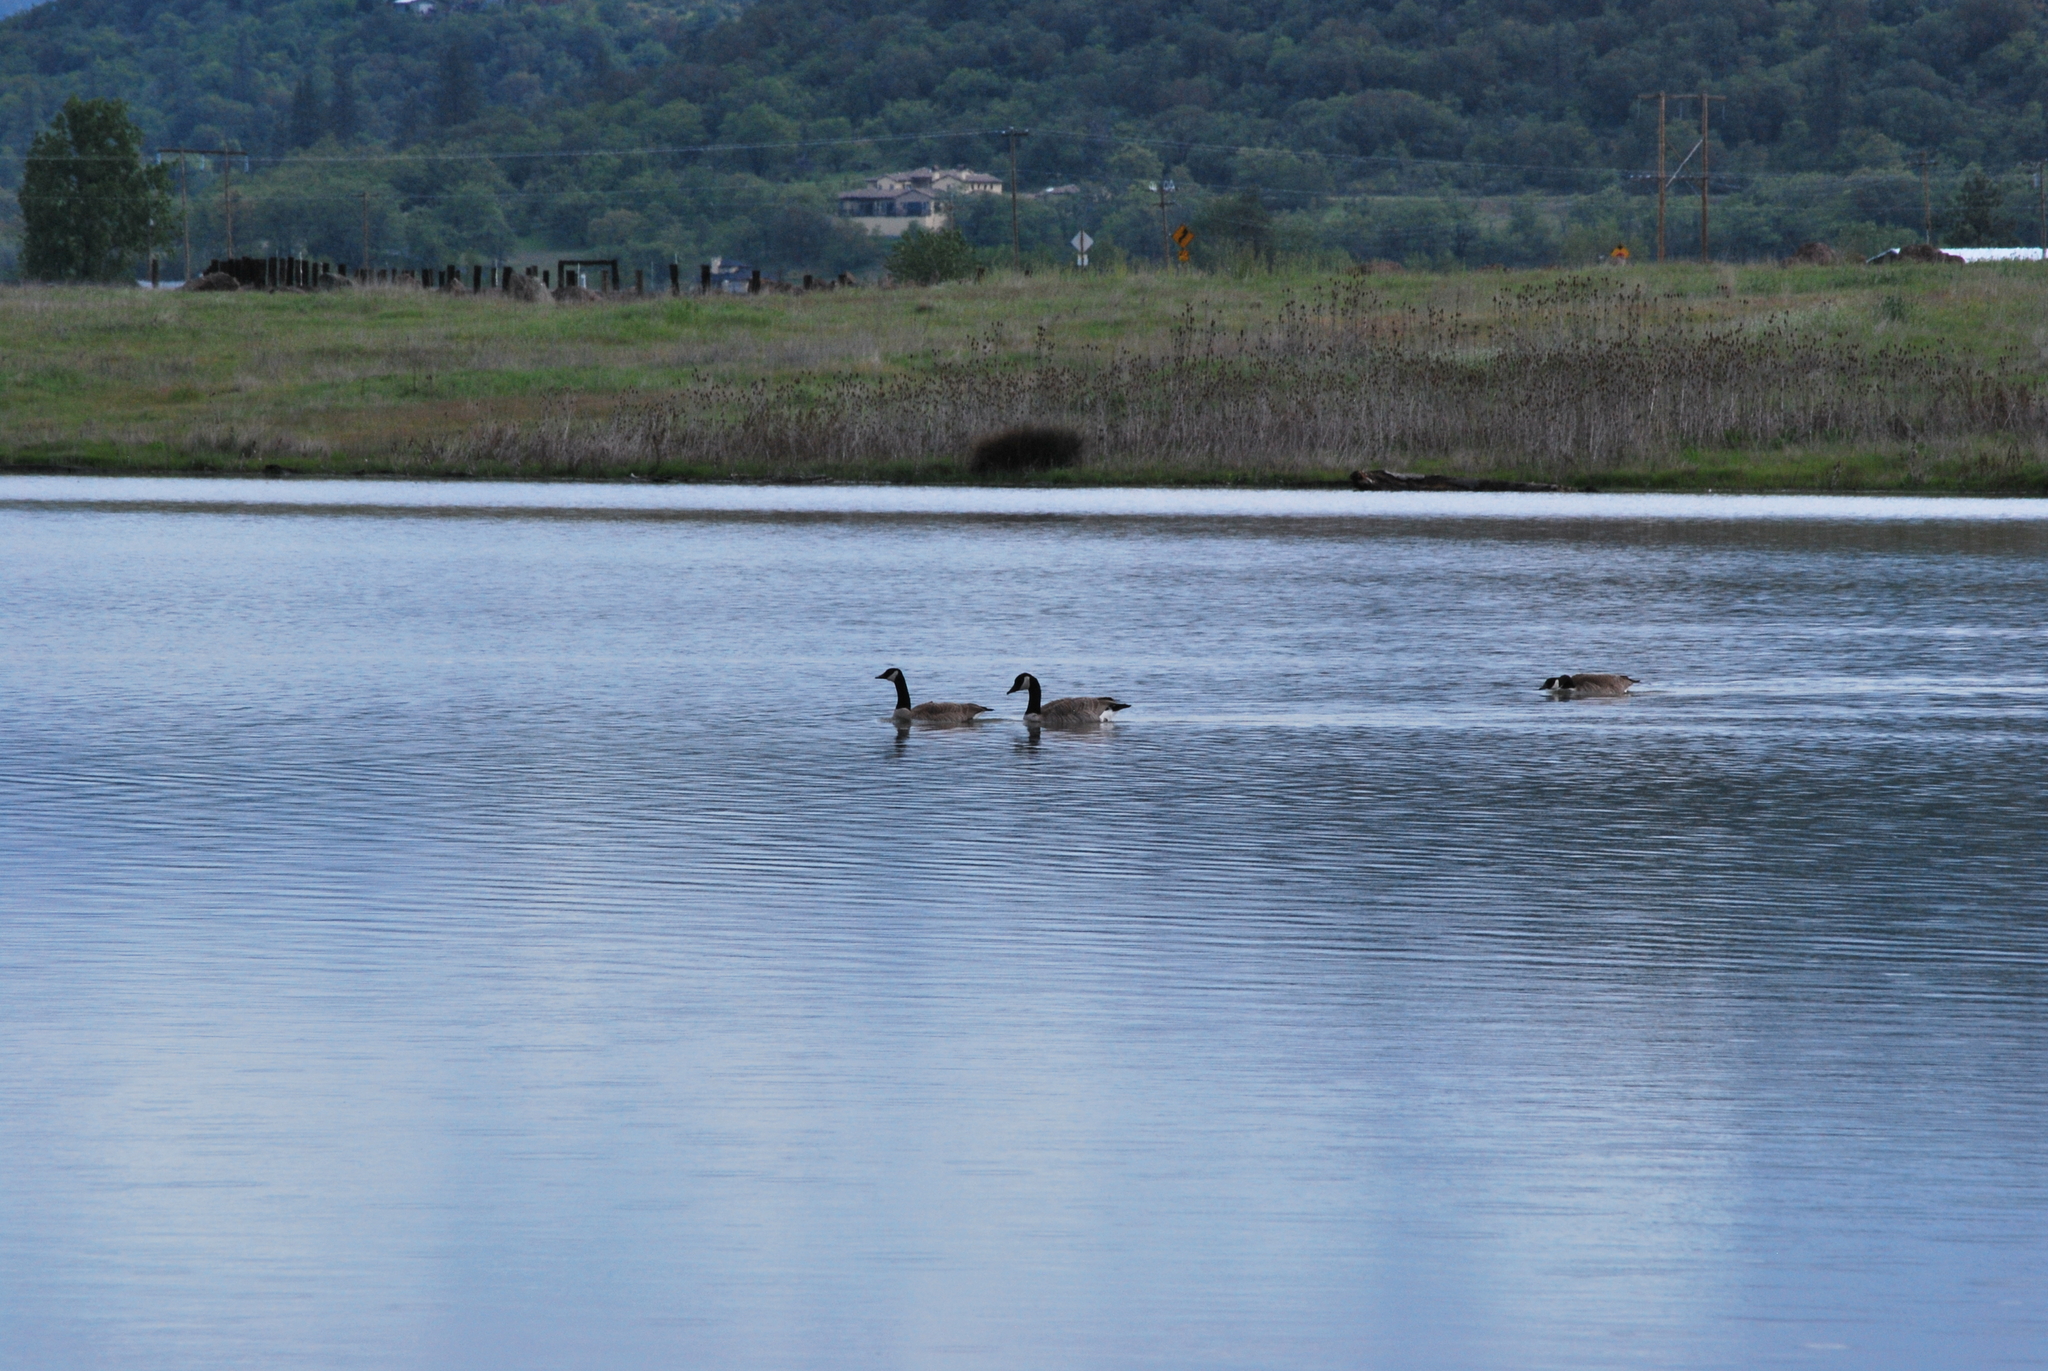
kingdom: Animalia
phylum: Chordata
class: Aves
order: Anseriformes
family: Anatidae
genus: Branta
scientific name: Branta canadensis
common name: Canada goose
